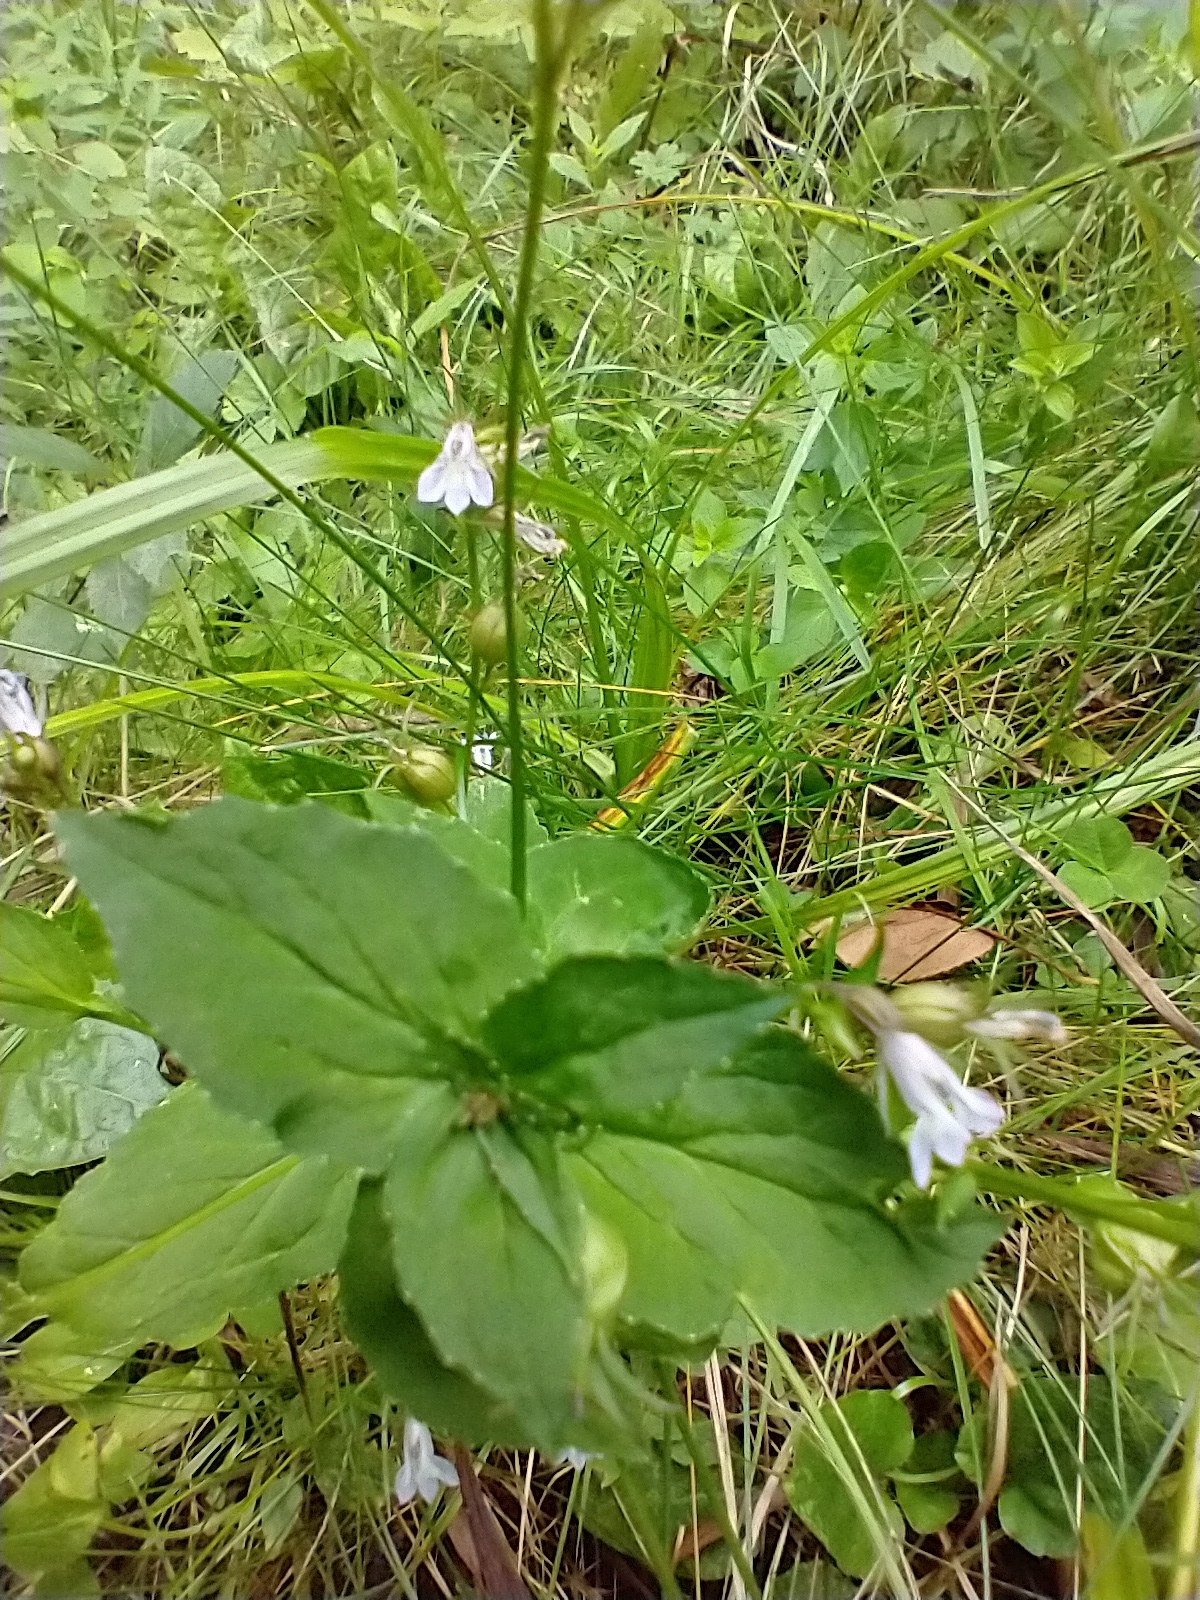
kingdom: Plantae
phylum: Tracheophyta
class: Magnoliopsida
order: Asterales
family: Campanulaceae
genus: Lobelia
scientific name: Lobelia inflata
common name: Indian tobacco
